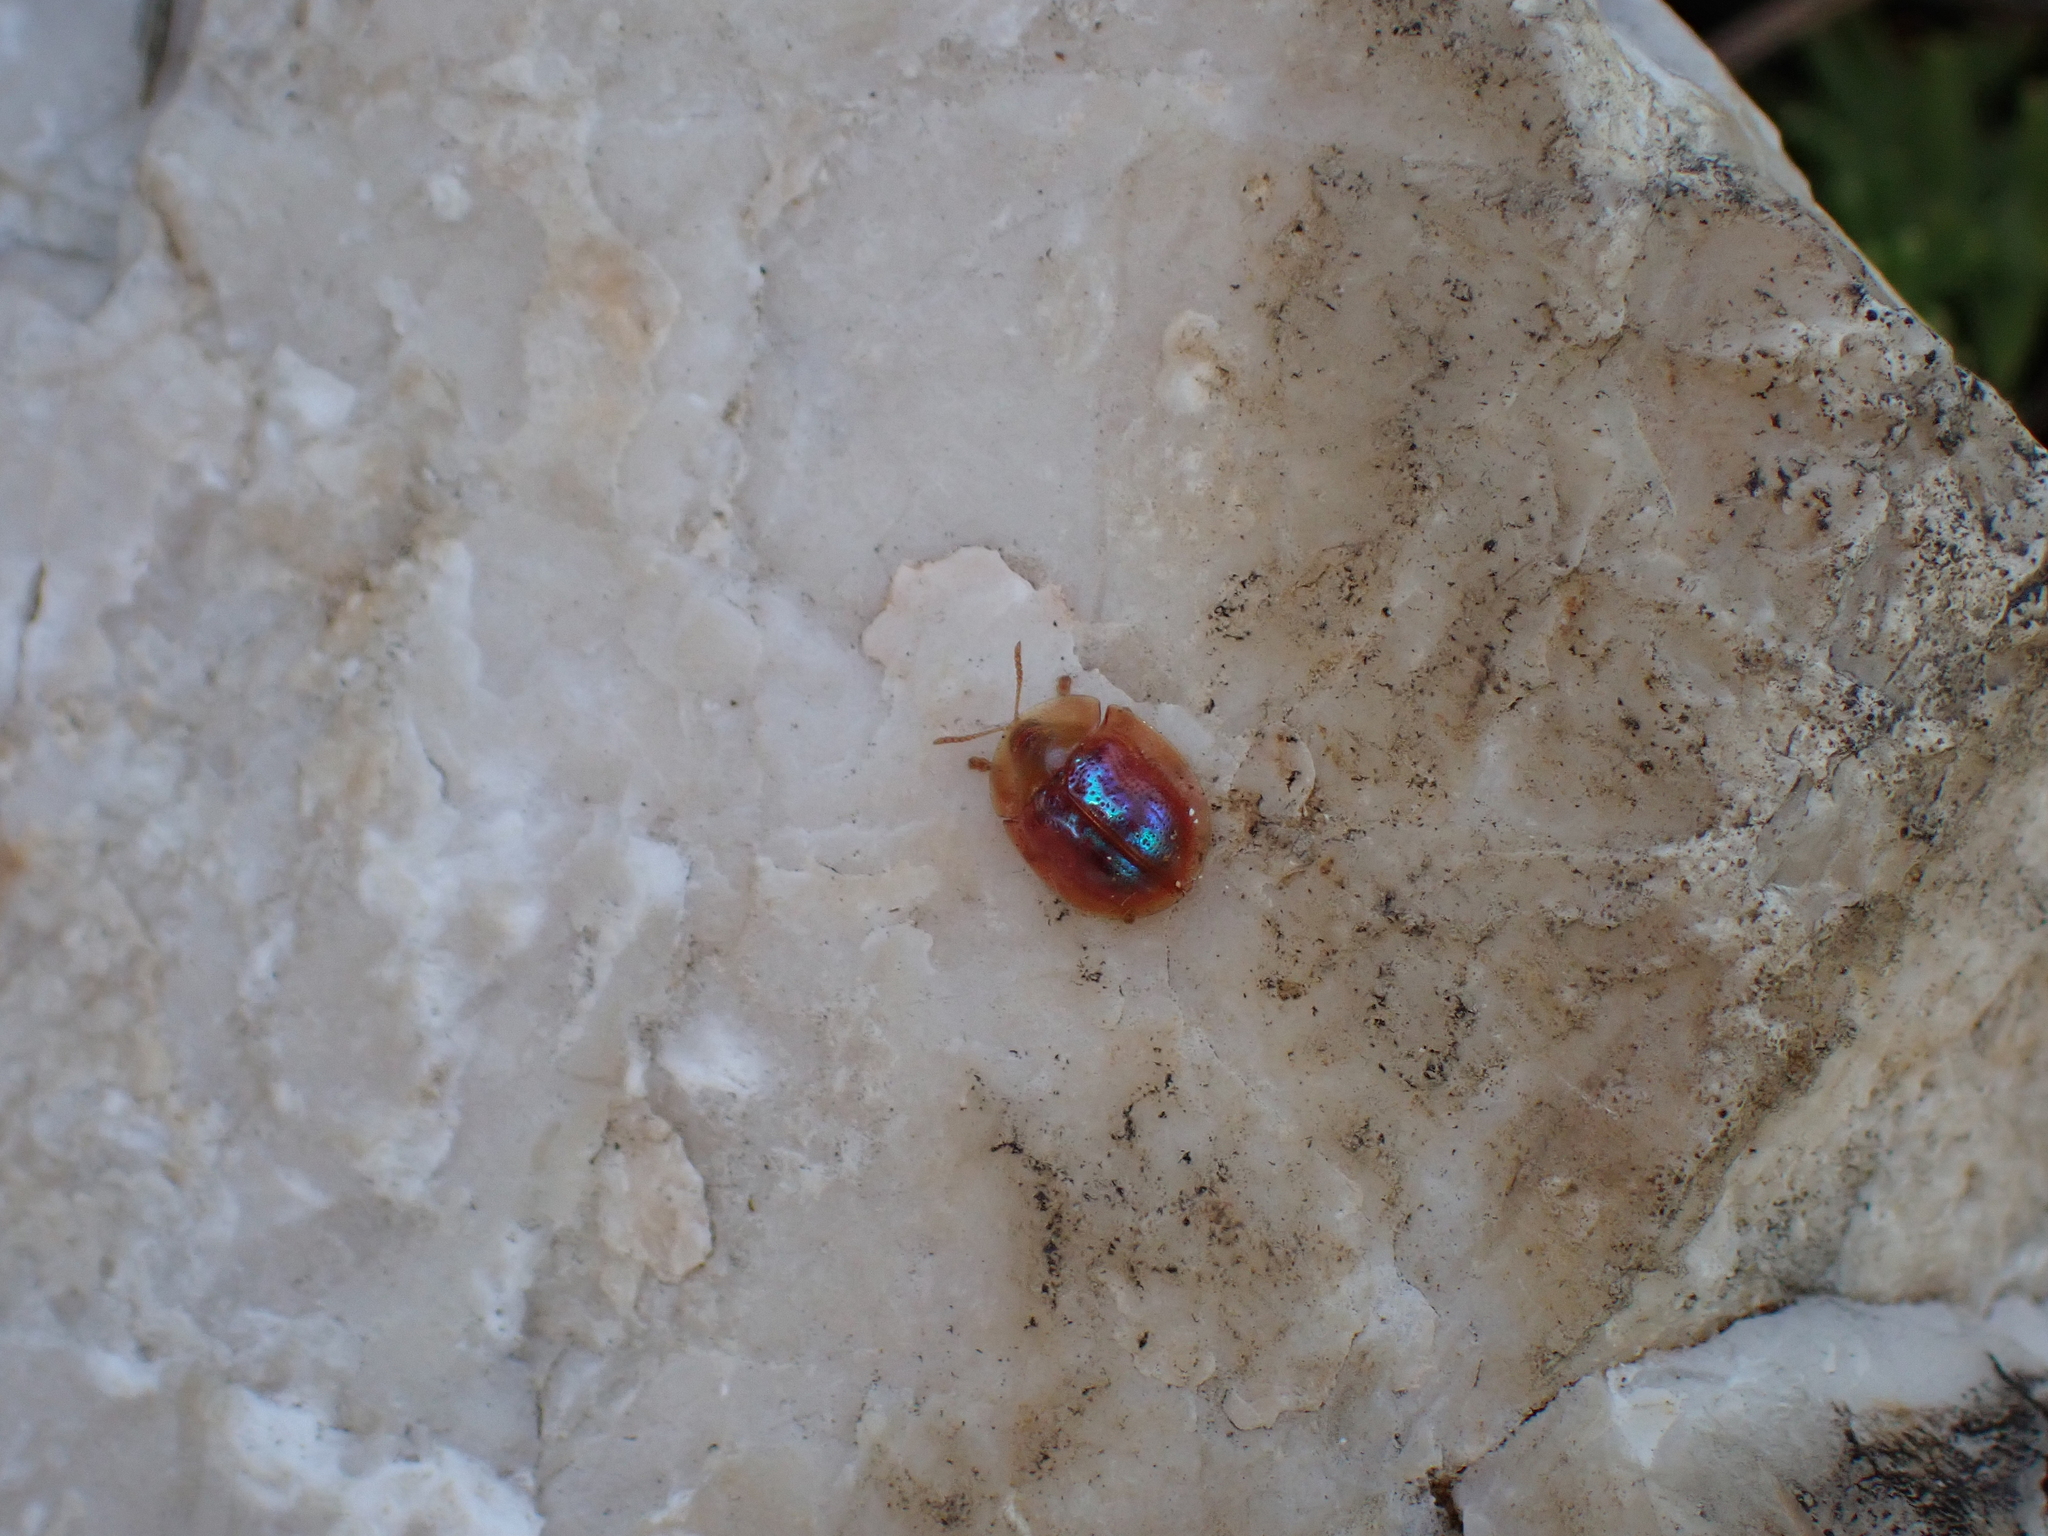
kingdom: Animalia
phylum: Arthropoda
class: Insecta
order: Coleoptera
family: Chrysomelidae
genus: Cassida
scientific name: Cassida subreticulata
